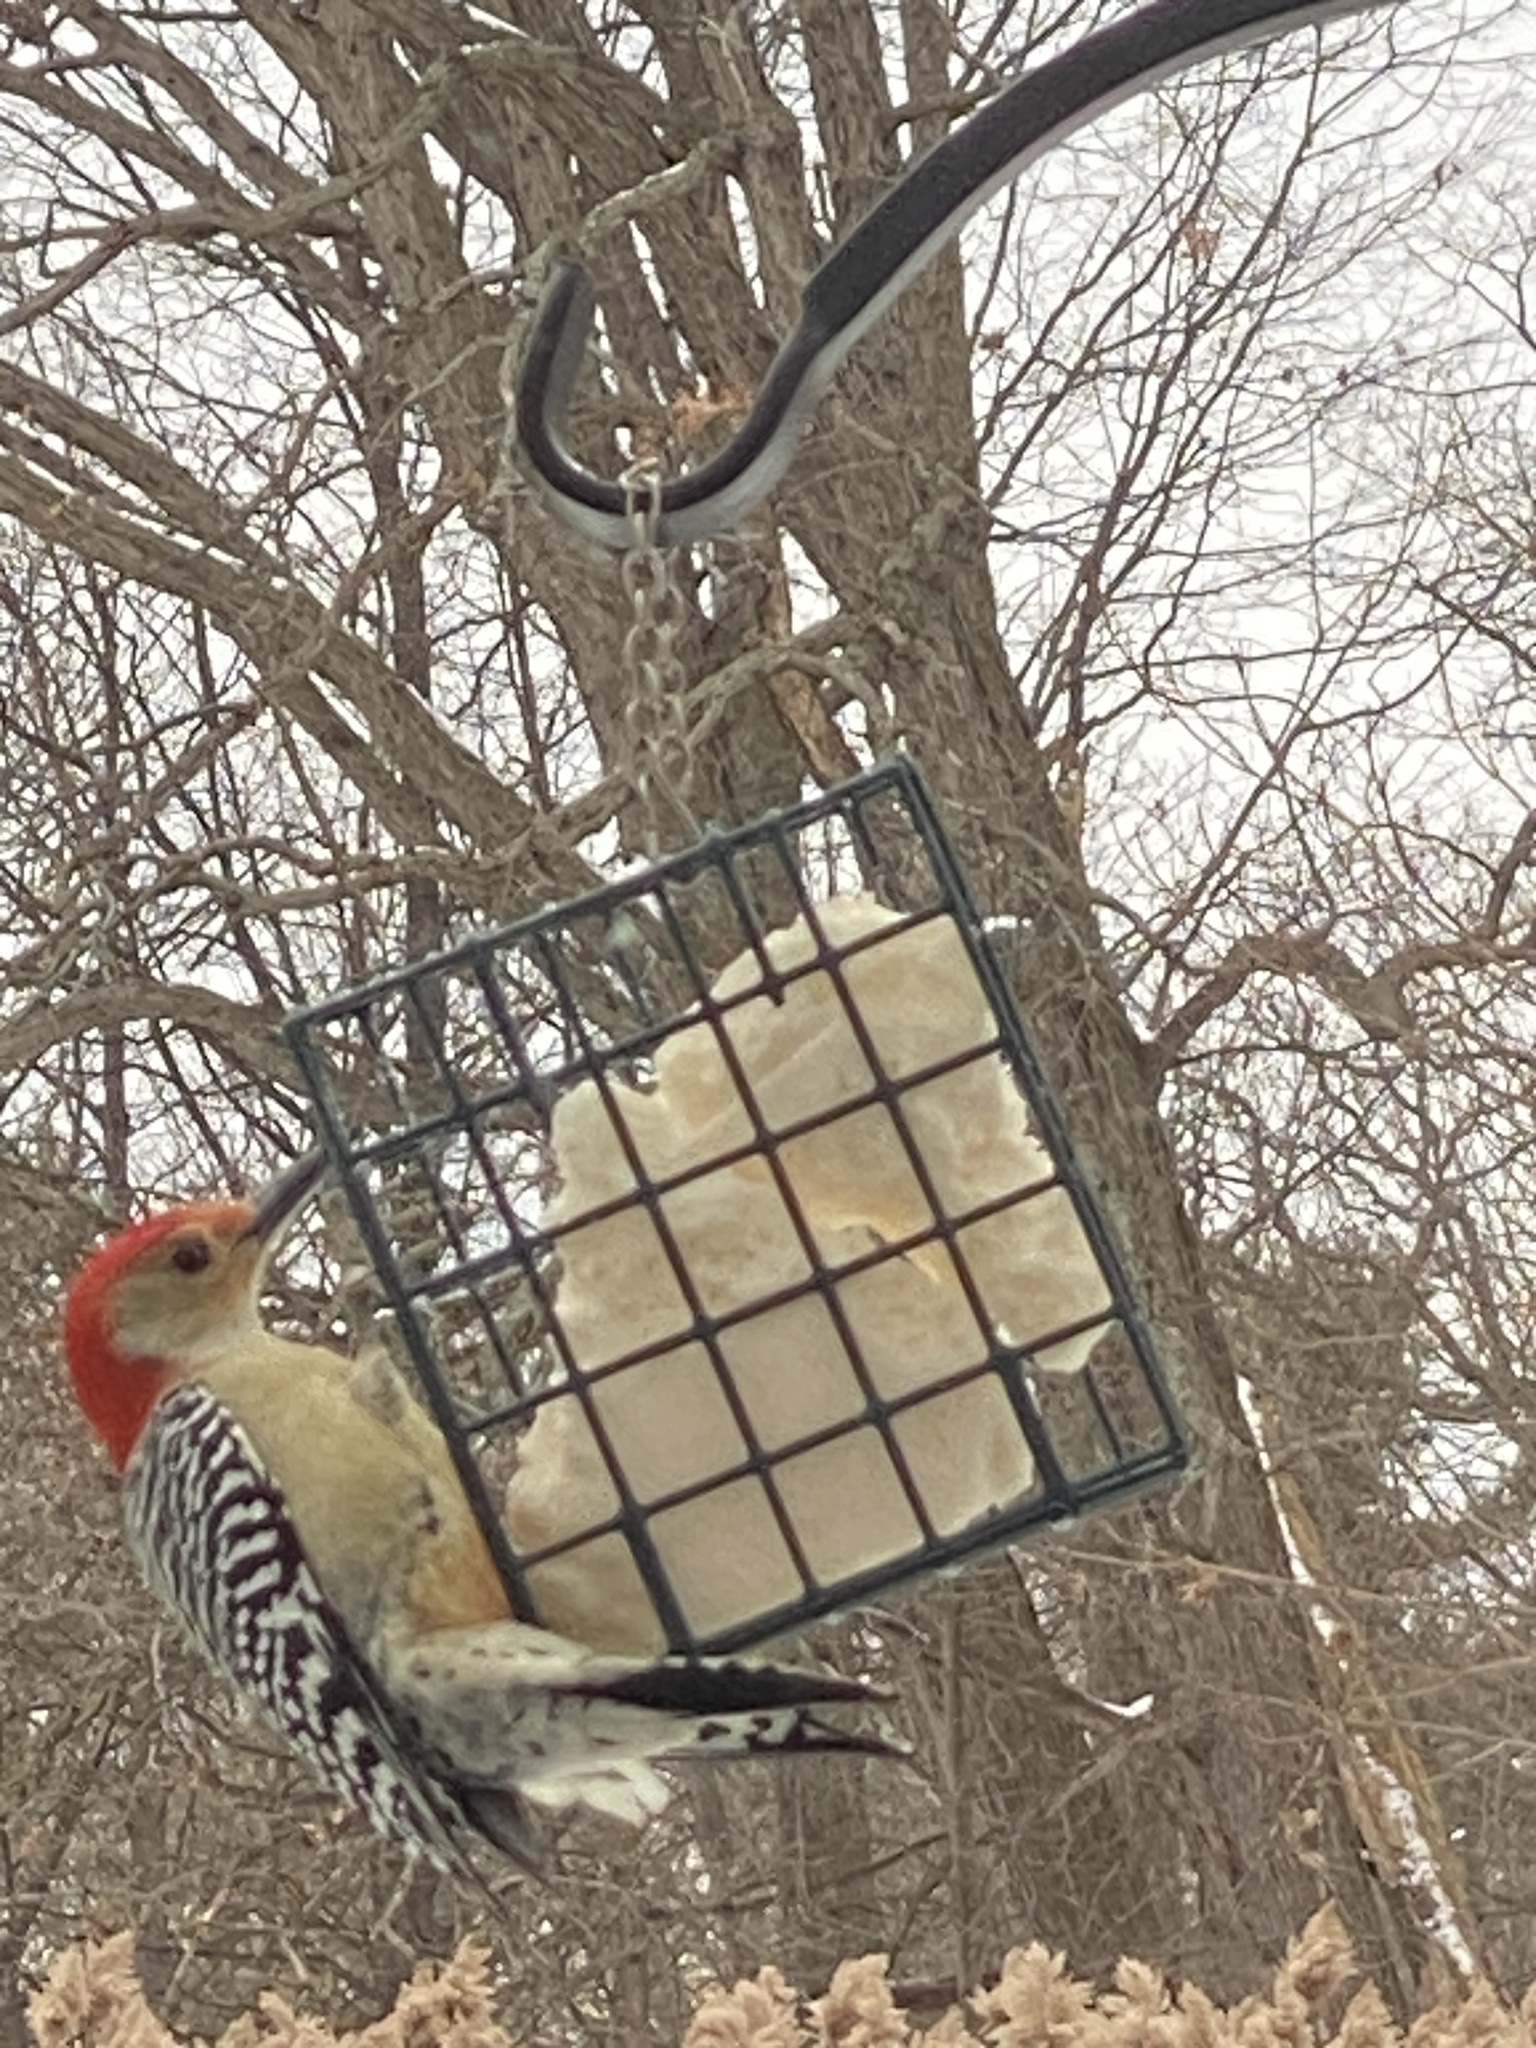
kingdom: Animalia
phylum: Chordata
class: Aves
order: Piciformes
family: Picidae
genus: Melanerpes
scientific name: Melanerpes carolinus
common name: Red-bellied woodpecker
